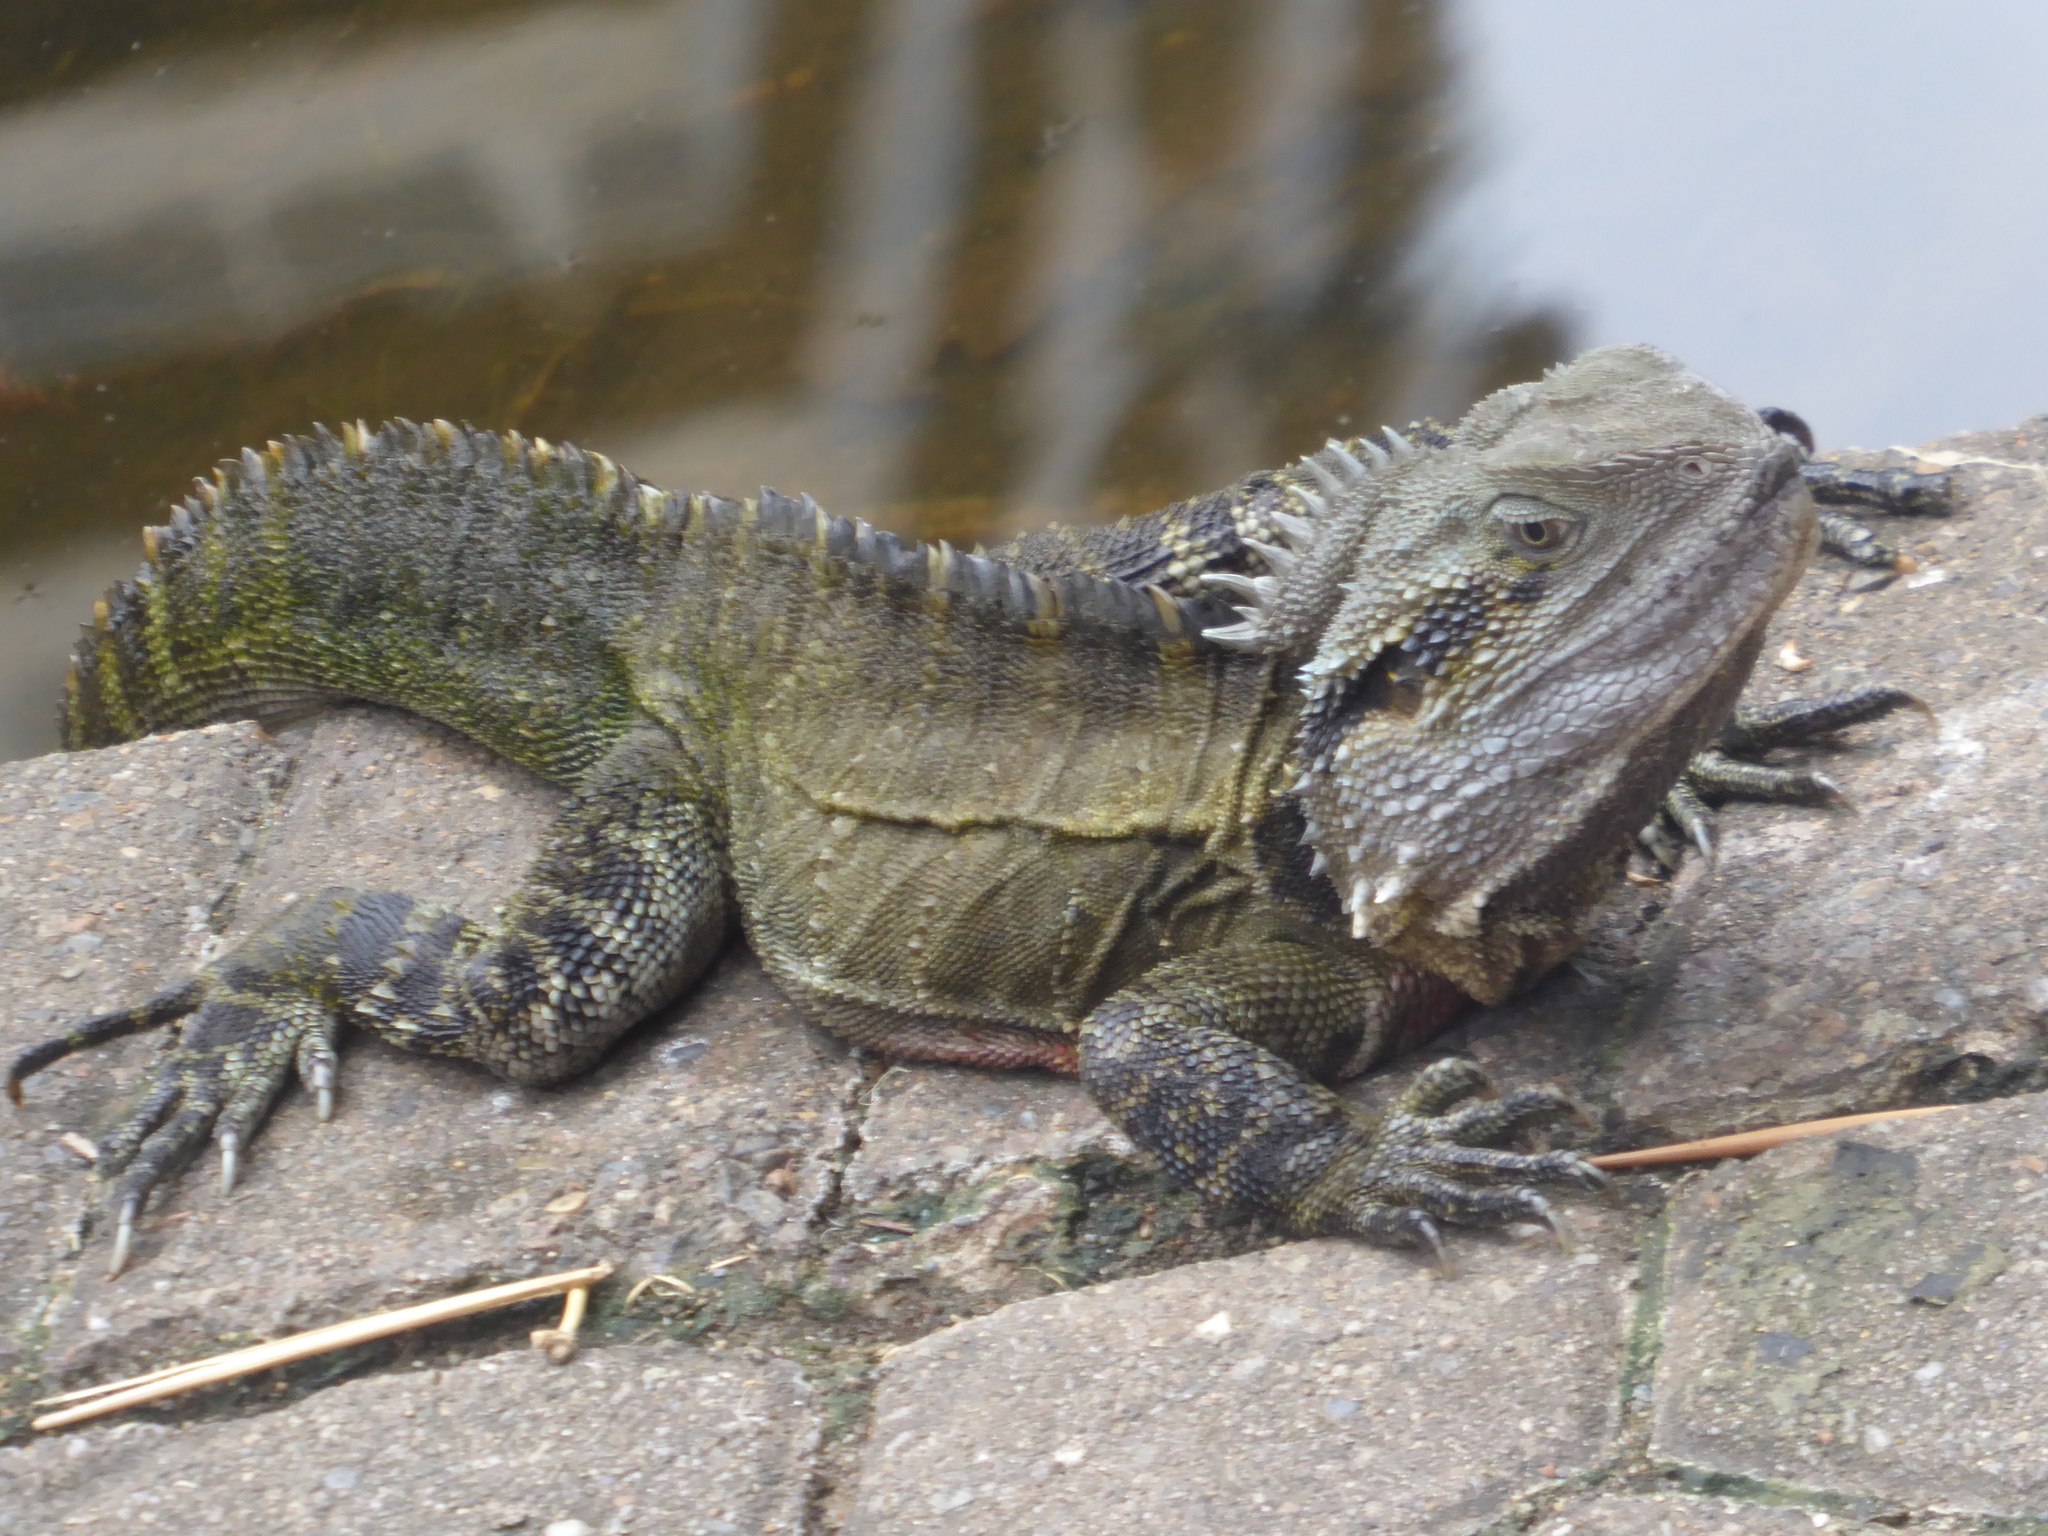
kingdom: Animalia
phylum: Chordata
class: Squamata
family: Agamidae
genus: Intellagama
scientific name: Intellagama lesueurii
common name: Eastern water dragon
